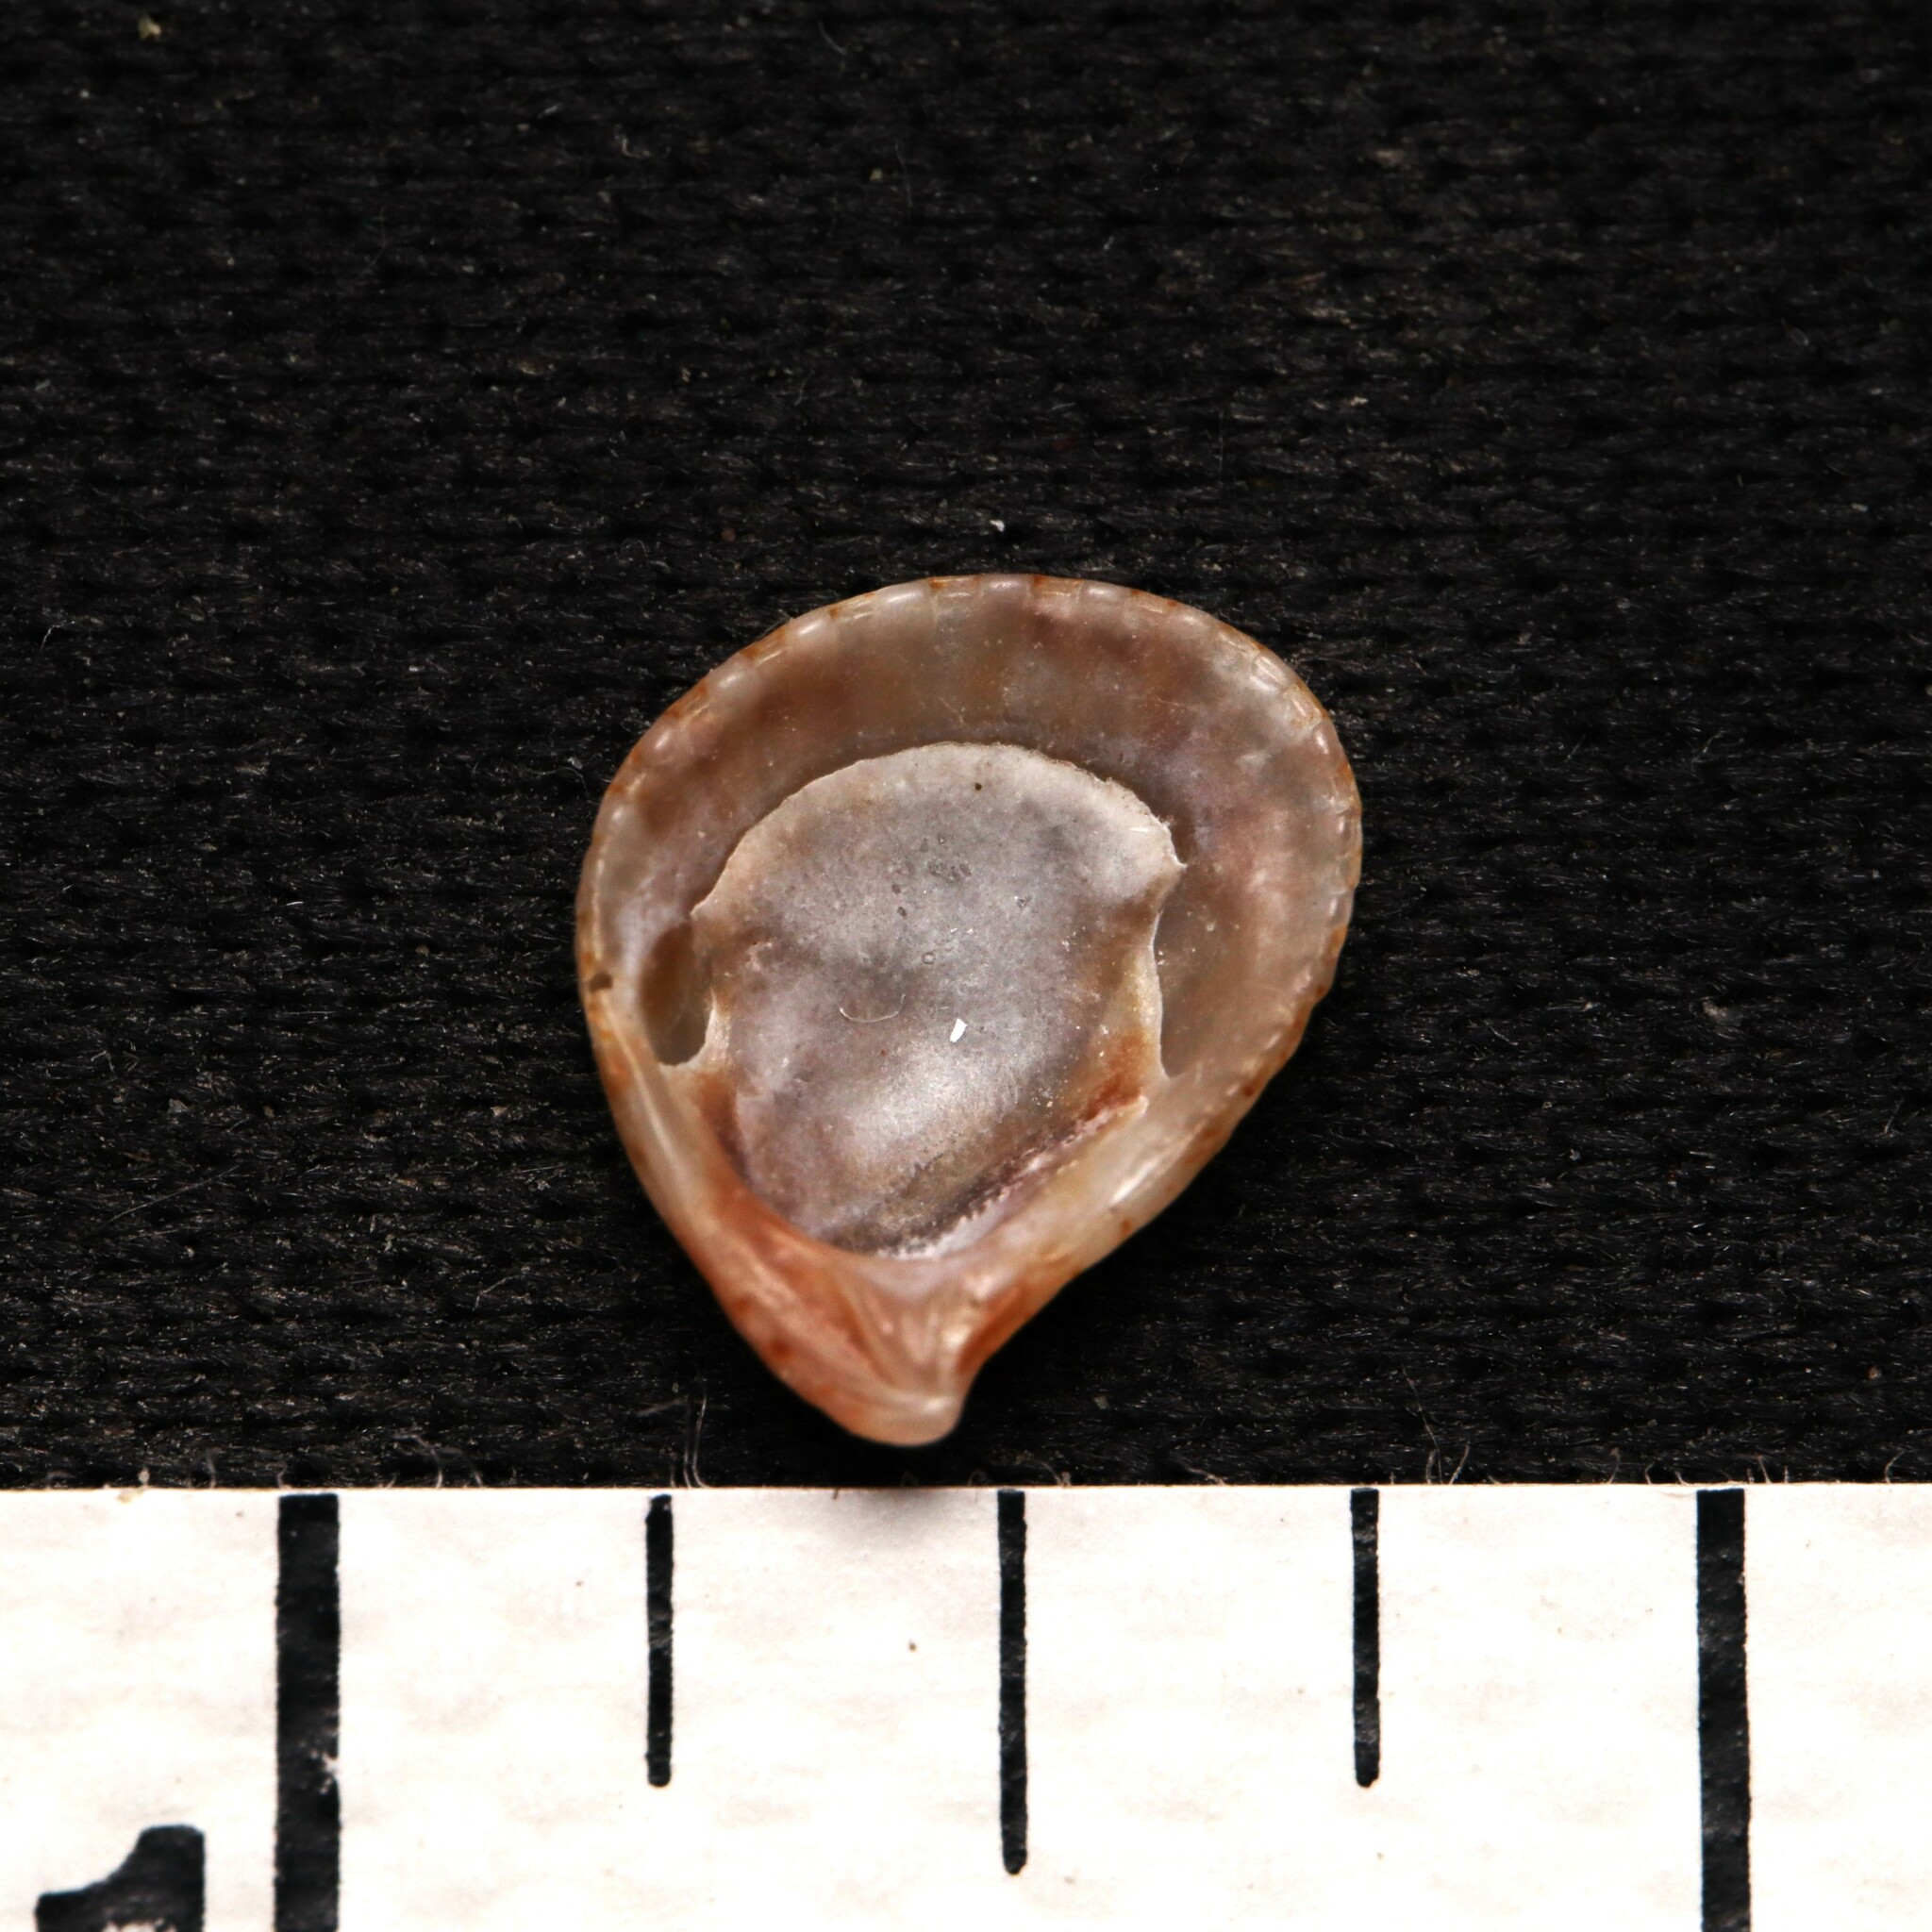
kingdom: Animalia
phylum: Mollusca
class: Bivalvia
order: Carditida
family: Carditidae
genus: Pteromeris
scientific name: Pteromeris perplana
